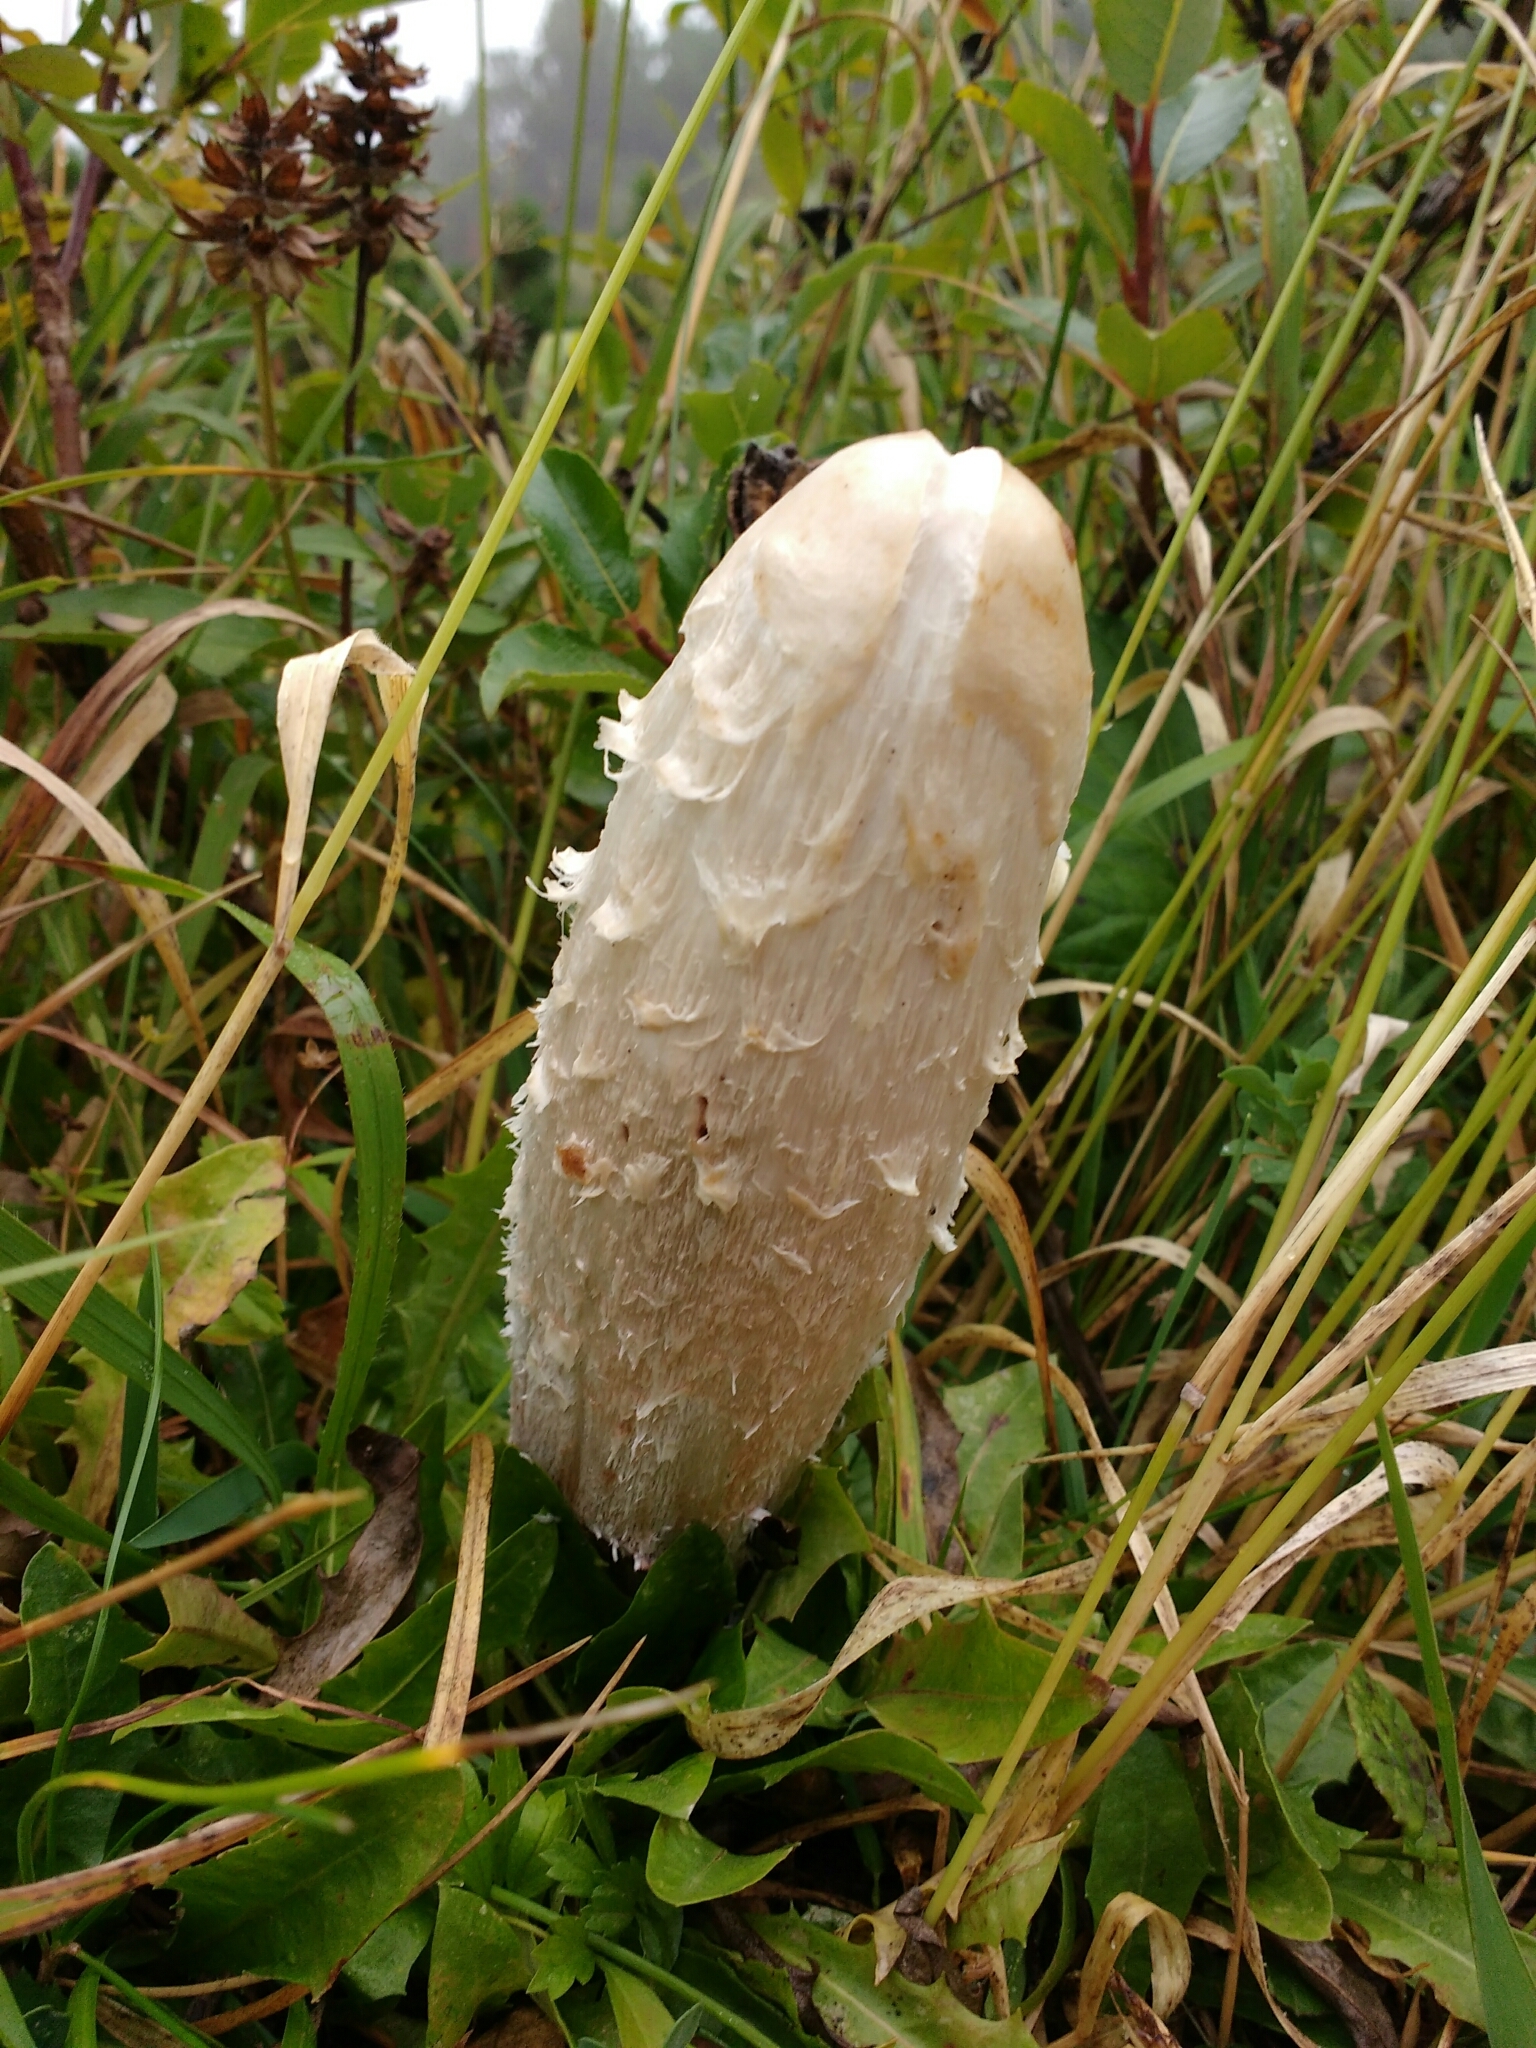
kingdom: Fungi
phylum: Basidiomycota
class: Agaricomycetes
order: Agaricales
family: Agaricaceae
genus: Coprinus
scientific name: Coprinus comatus
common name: Lawyer's wig
